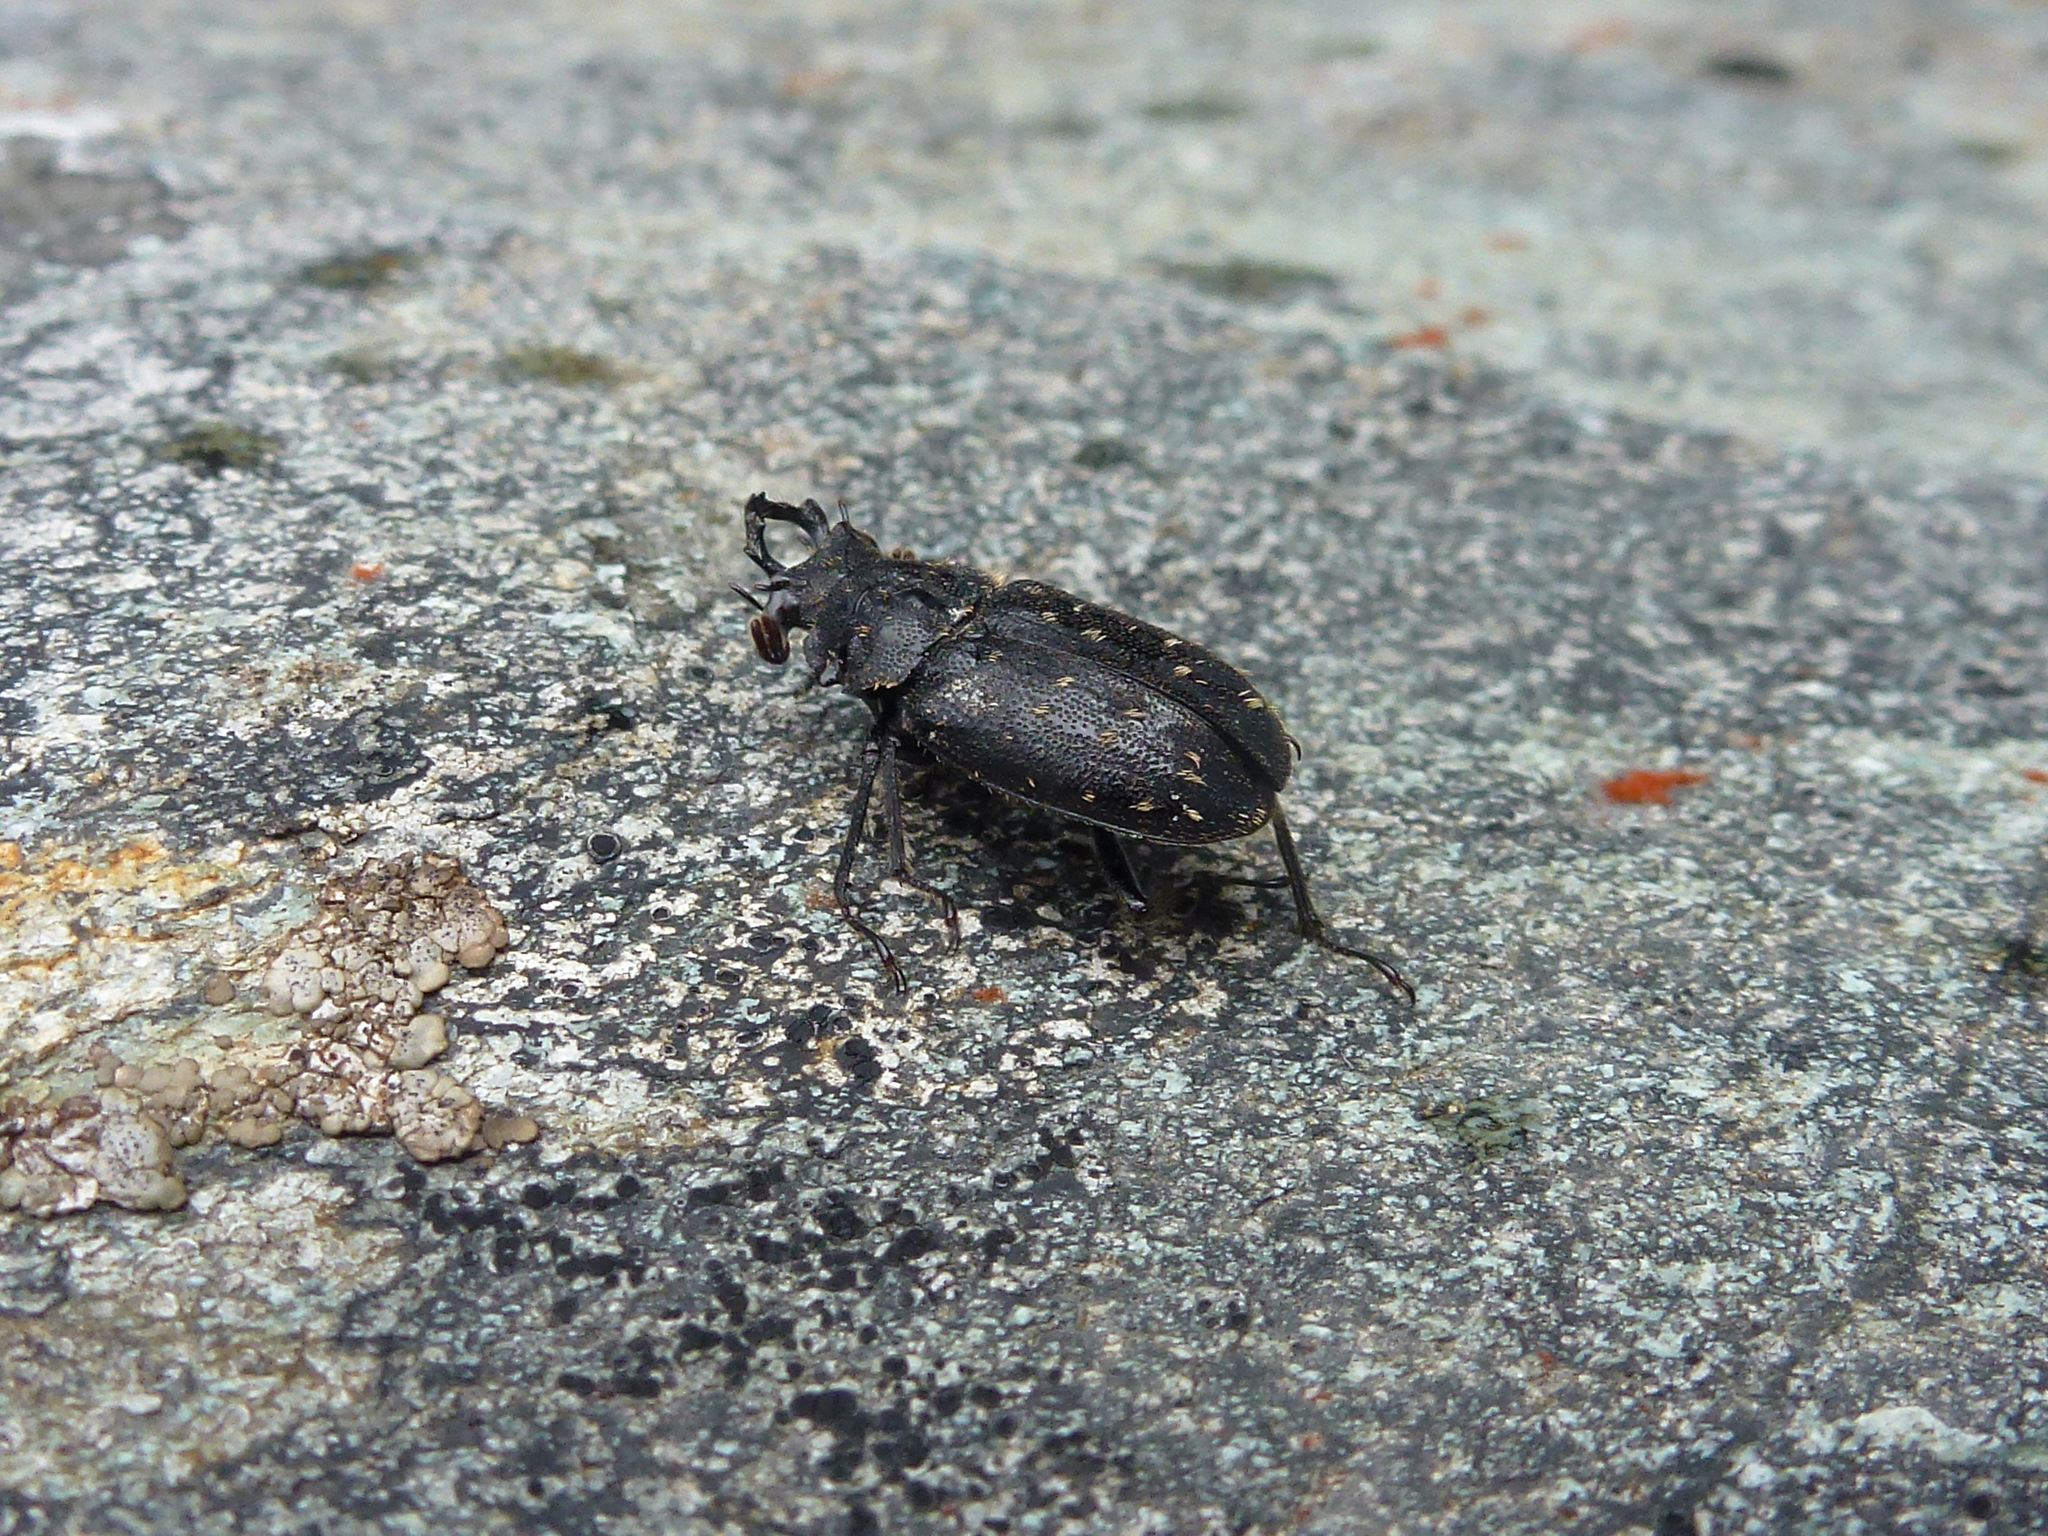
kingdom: Animalia
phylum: Arthropoda
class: Insecta
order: Coleoptera
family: Lucanidae
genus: Mitophyllus
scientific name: Mitophyllus insignis
